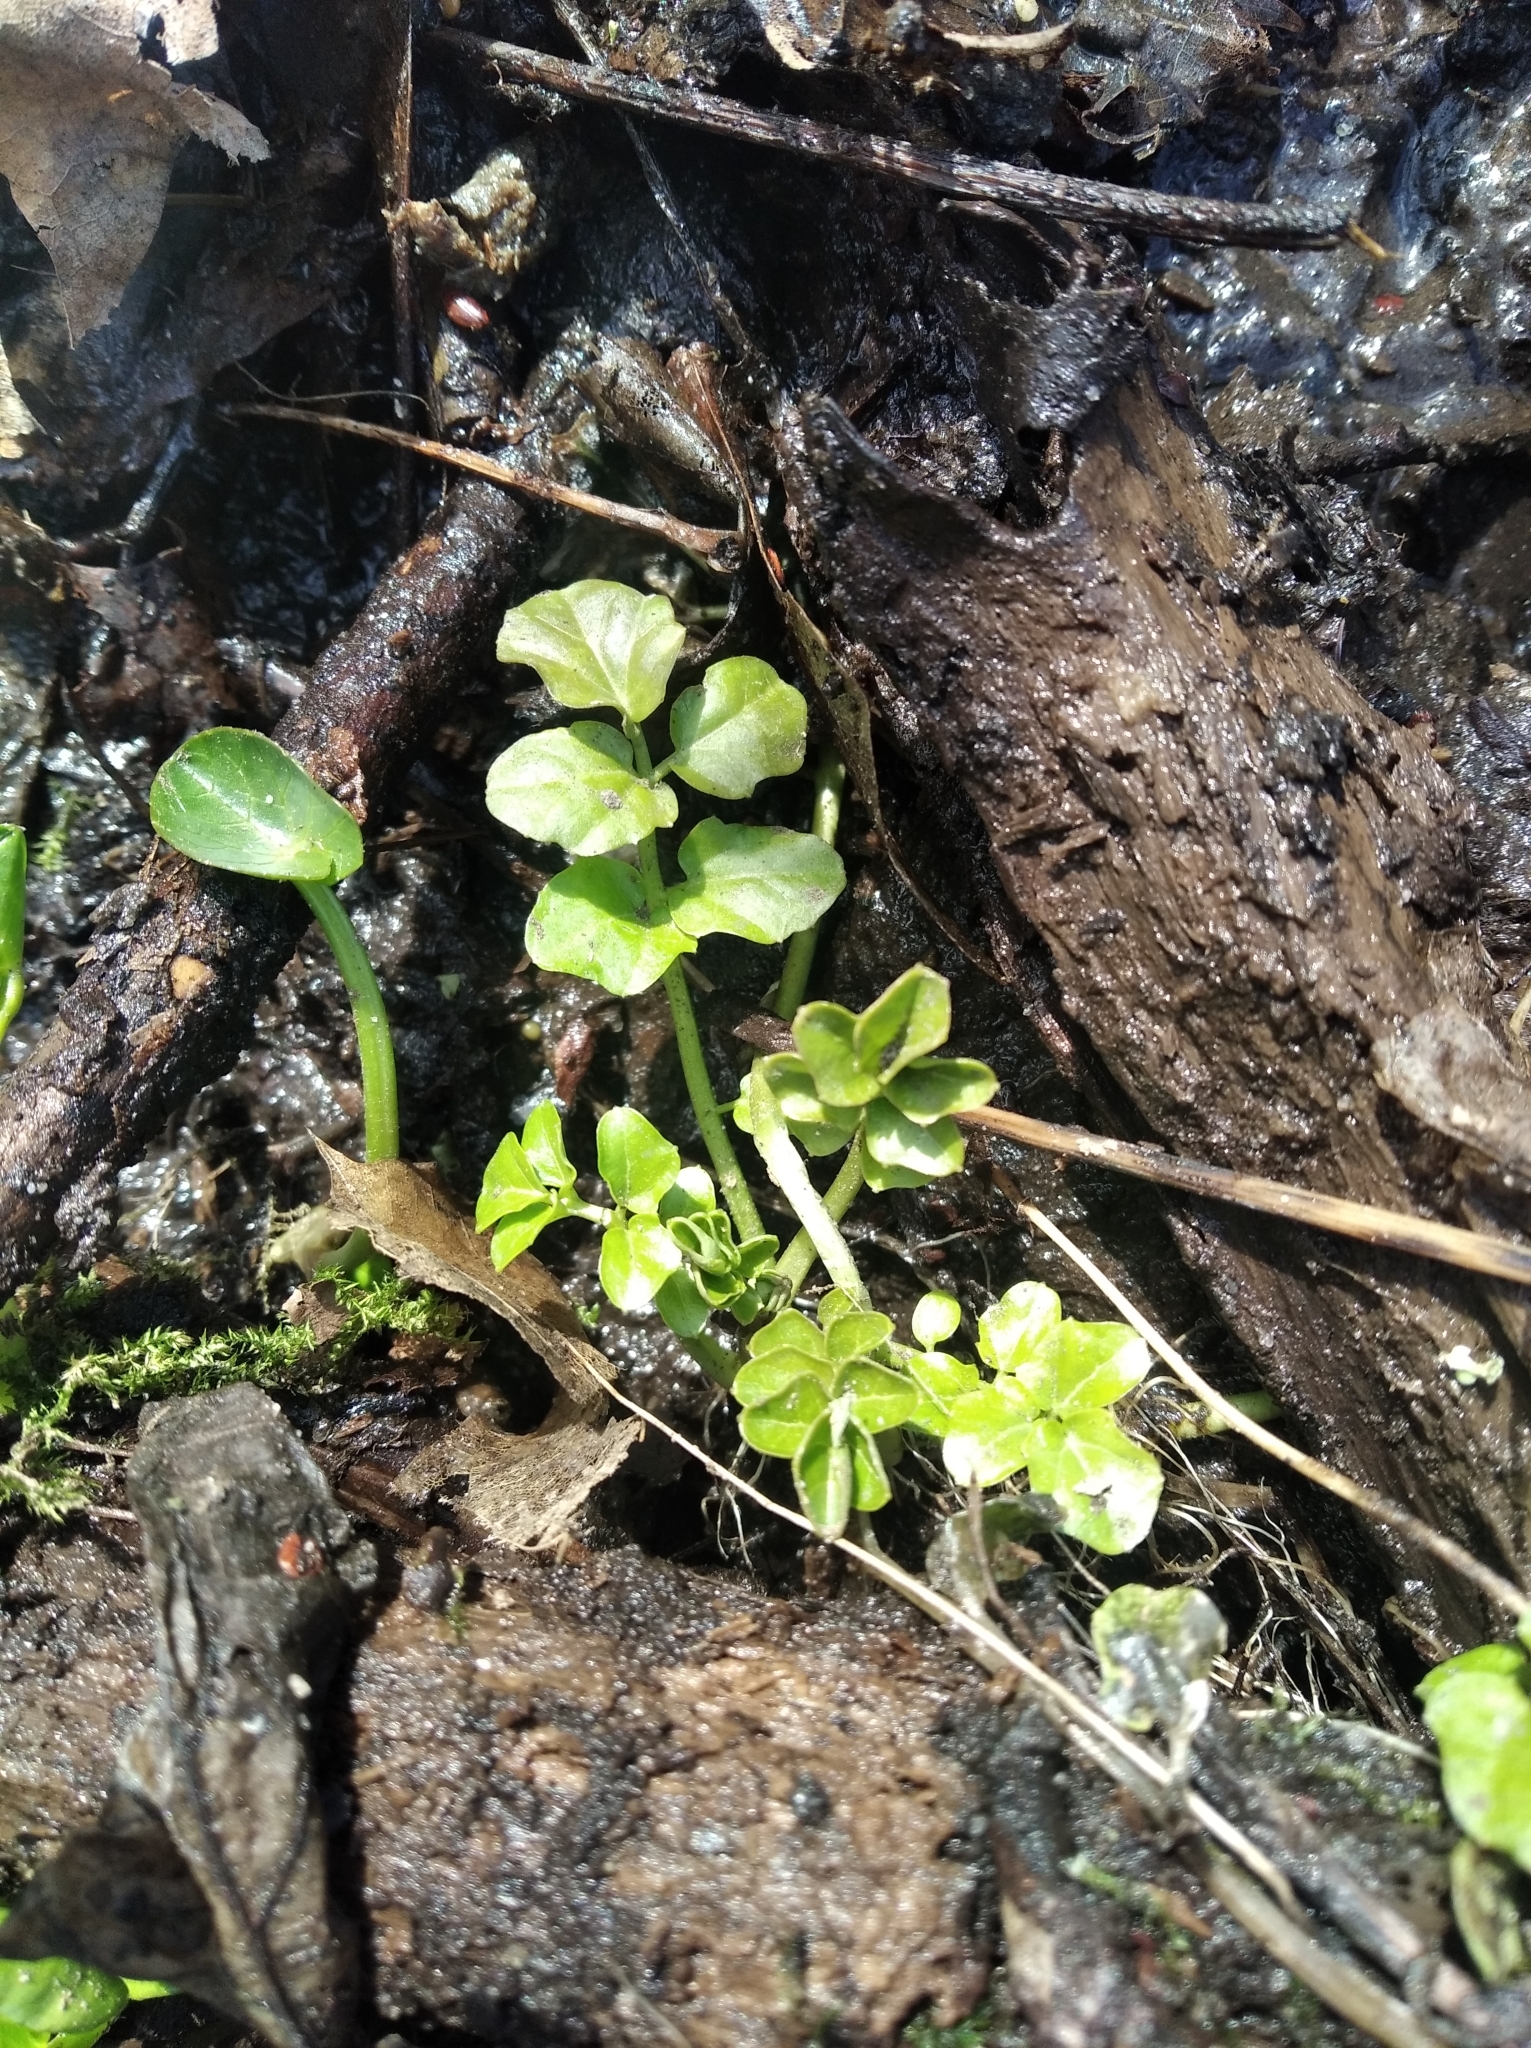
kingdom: Plantae
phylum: Tracheophyta
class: Magnoliopsida
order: Brassicales
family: Brassicaceae
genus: Cardamine
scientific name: Cardamine amara
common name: Large bitter-cress
